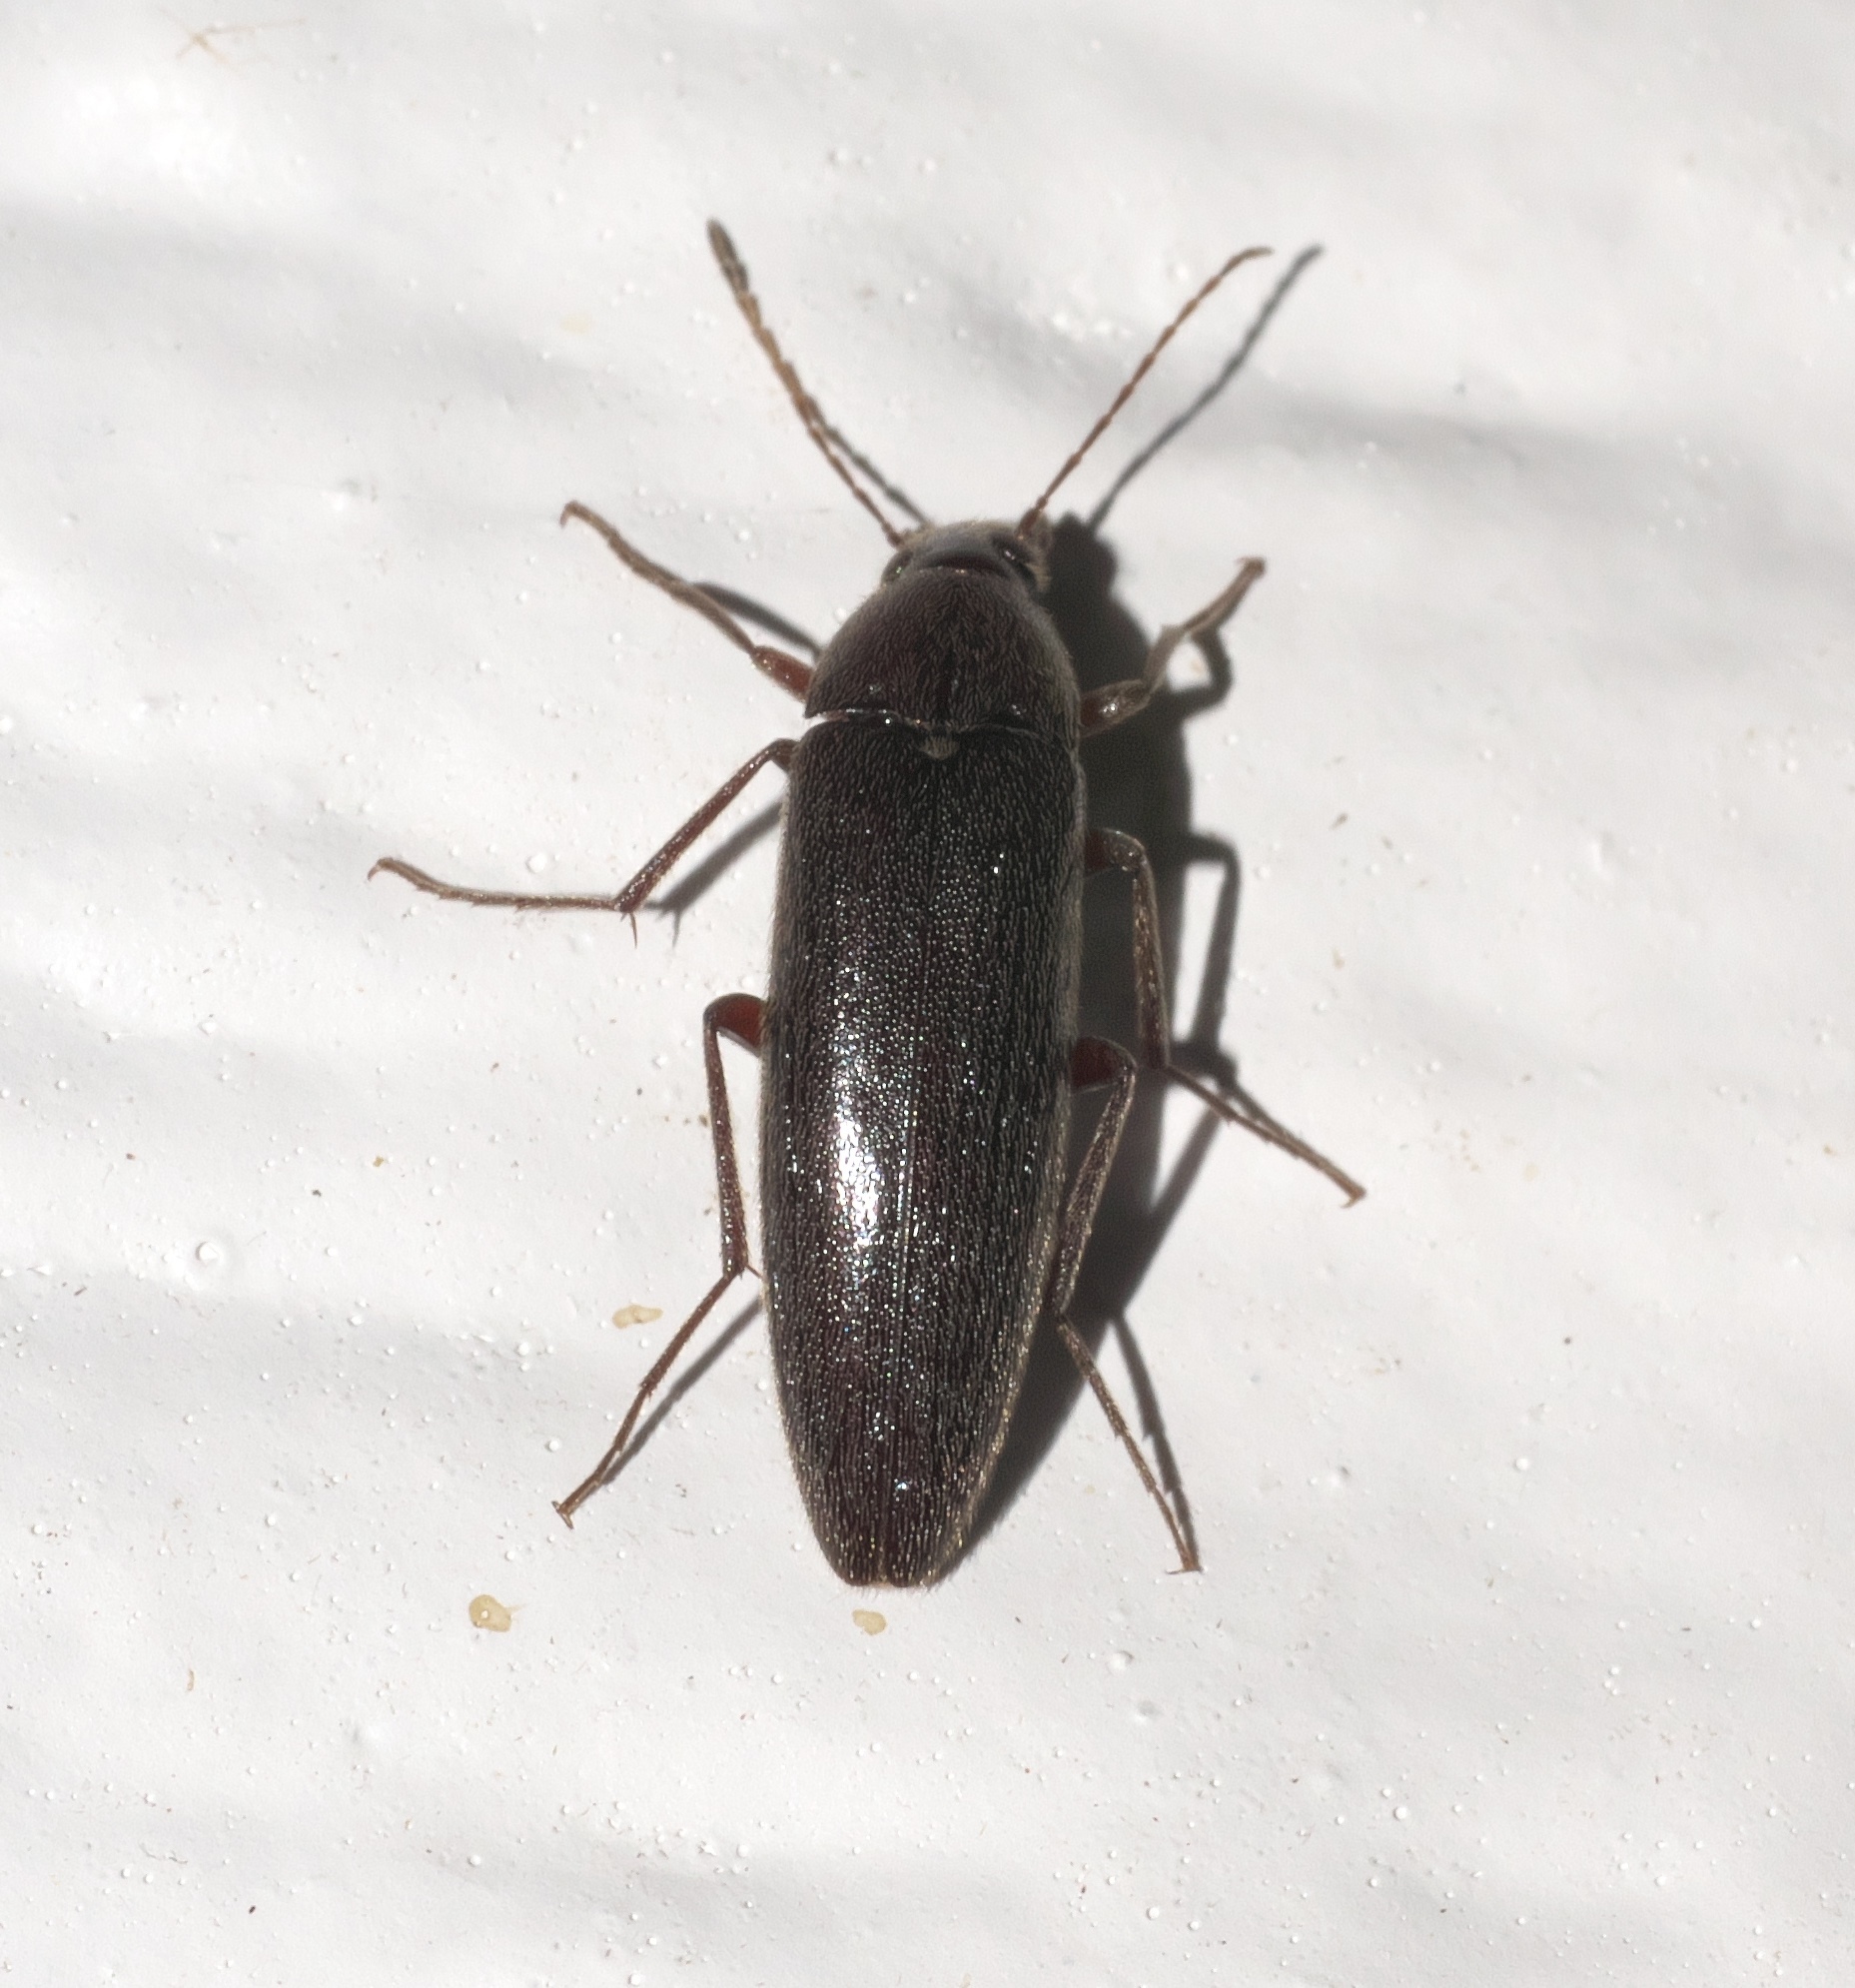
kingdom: Animalia
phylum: Arthropoda
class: Insecta
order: Coleoptera
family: Synchroidae
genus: Synchroa
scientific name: Synchroa punctata
